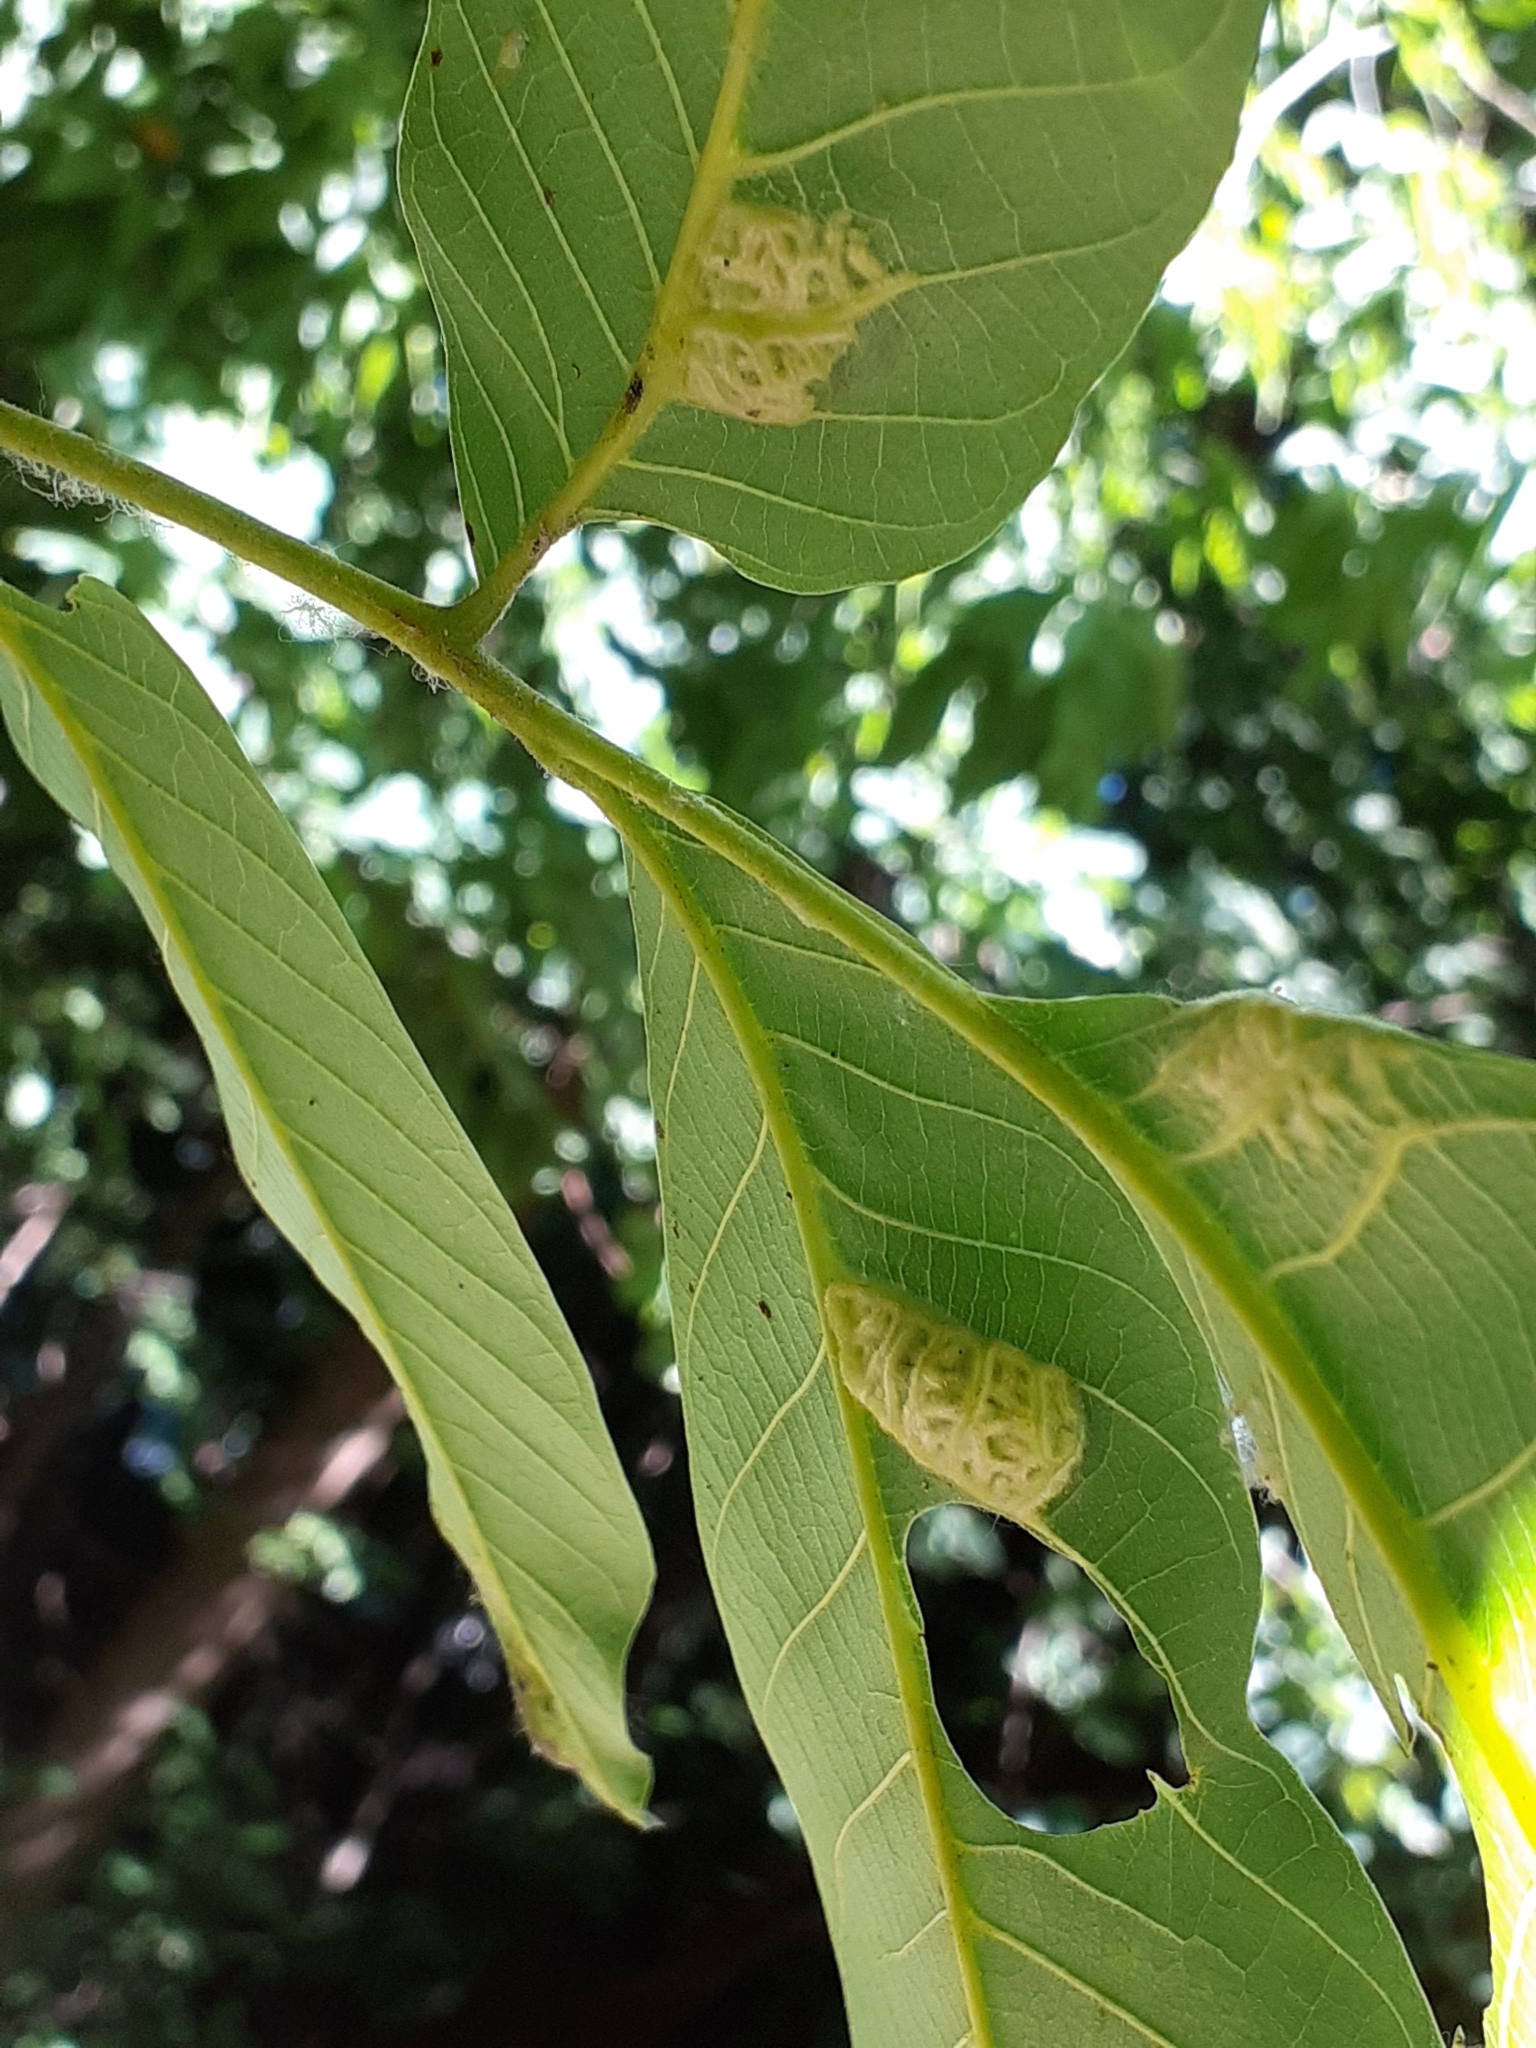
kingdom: Animalia
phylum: Arthropoda
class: Arachnida
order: Trombidiformes
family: Eriophyidae
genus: Aceria
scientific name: Aceria erinea
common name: Persian walnut erineum mite
